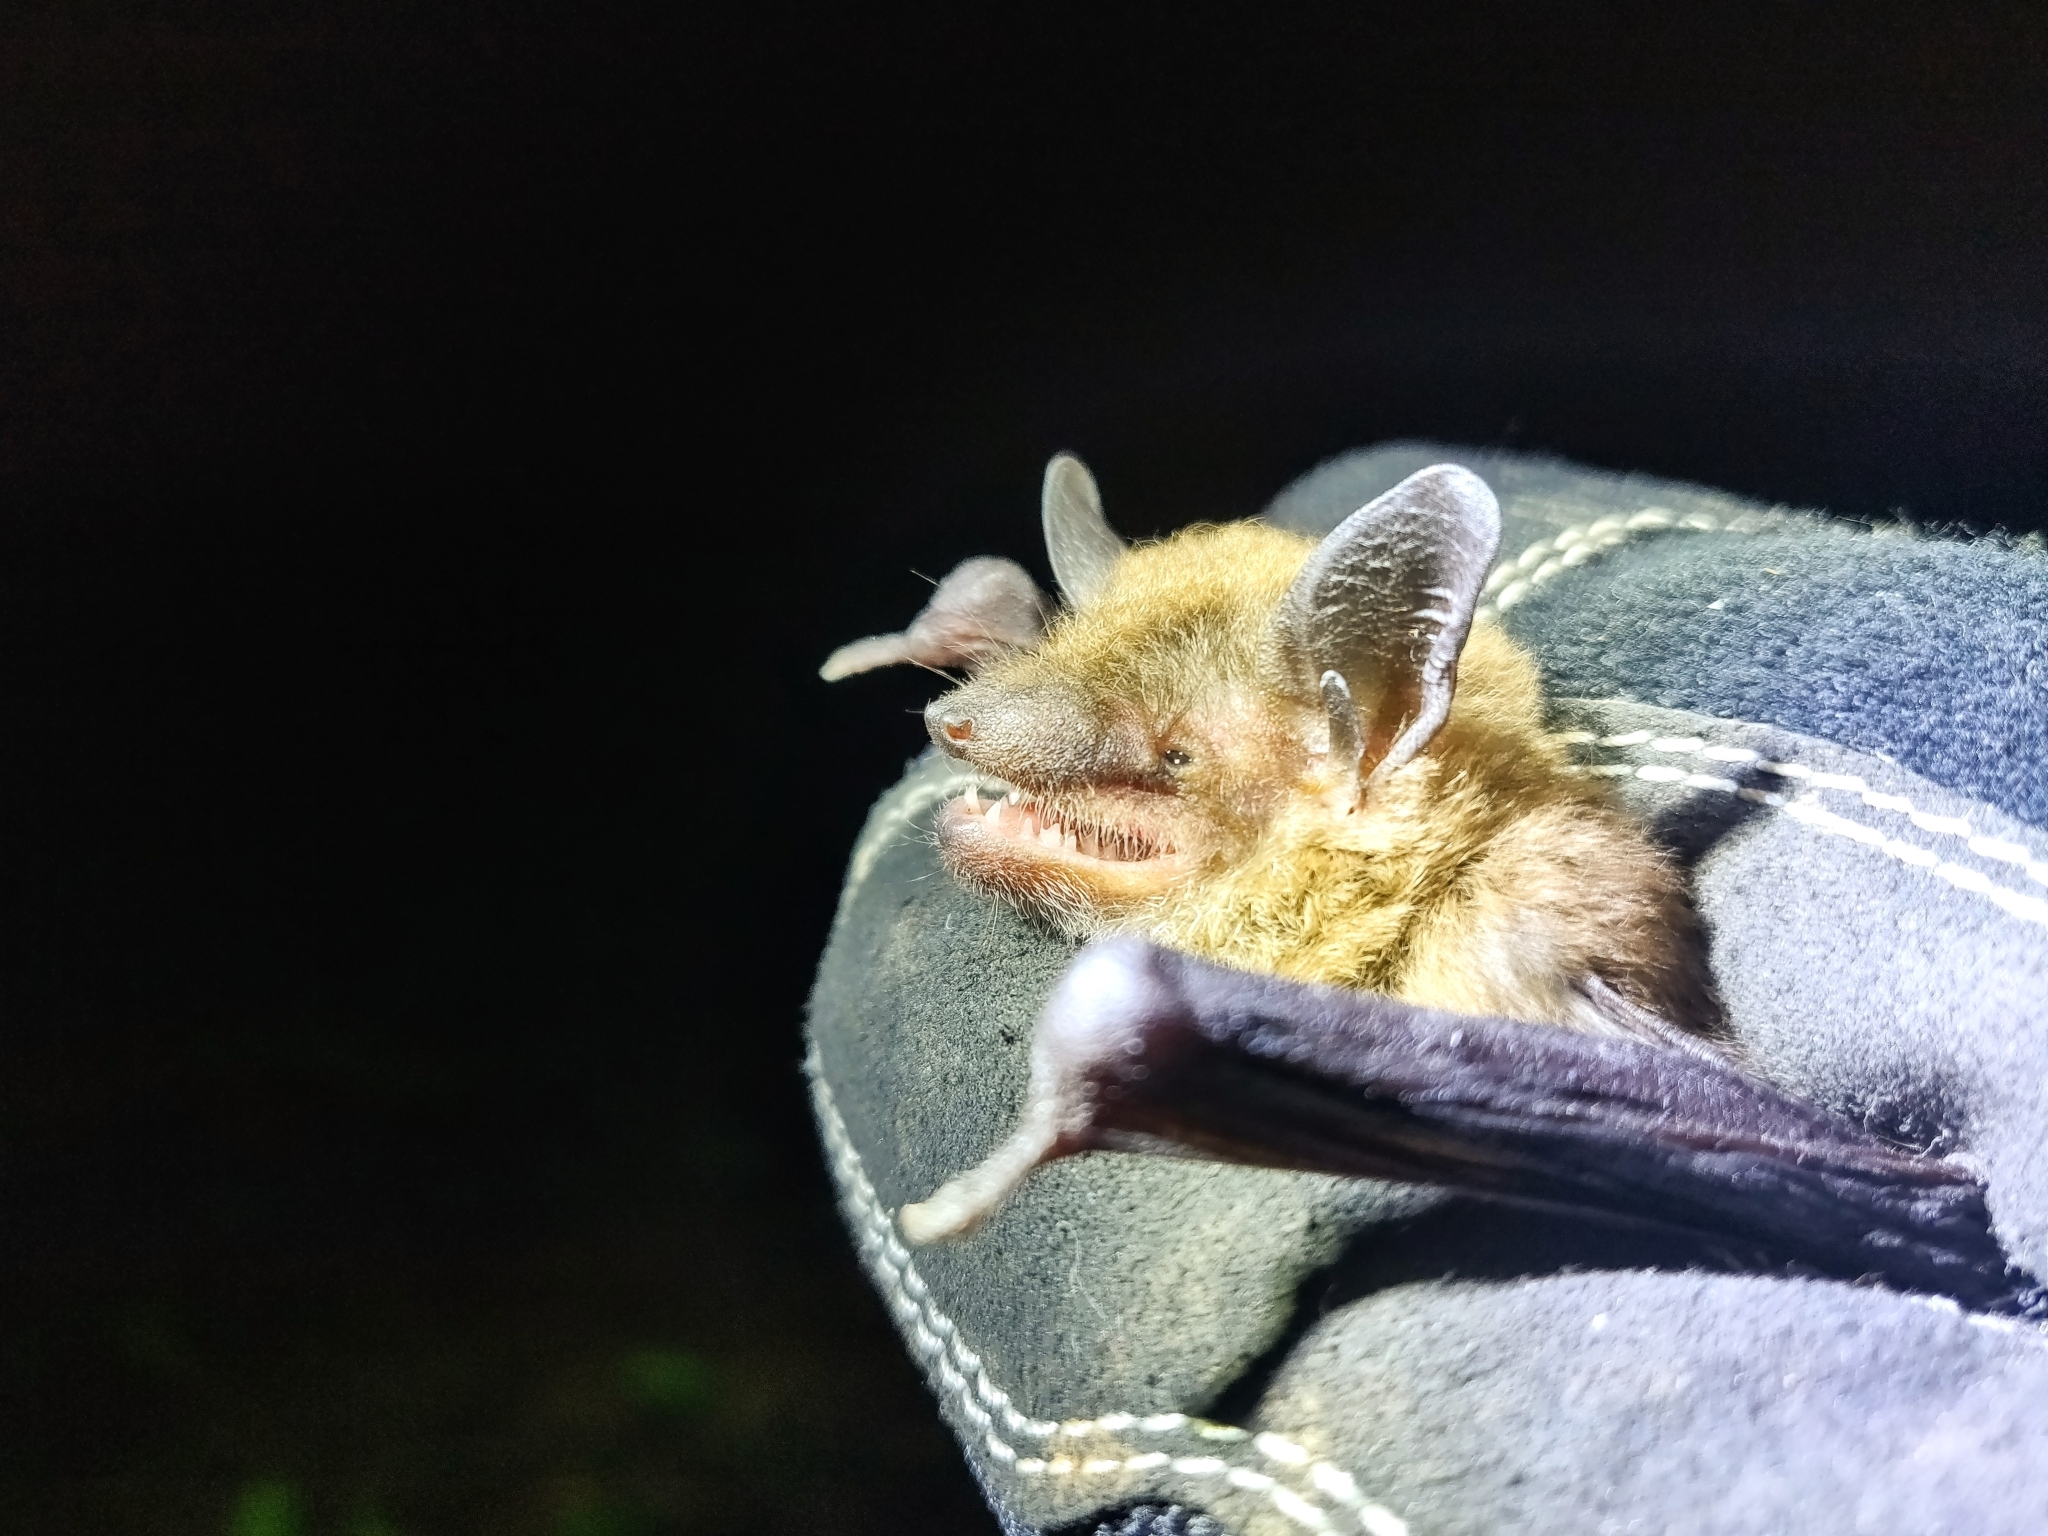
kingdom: Animalia
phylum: Chordata
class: Mammalia
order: Chiroptera
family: Vespertilionidae
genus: Eptesicus
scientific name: Eptesicus fuscus
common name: Big brown bat
